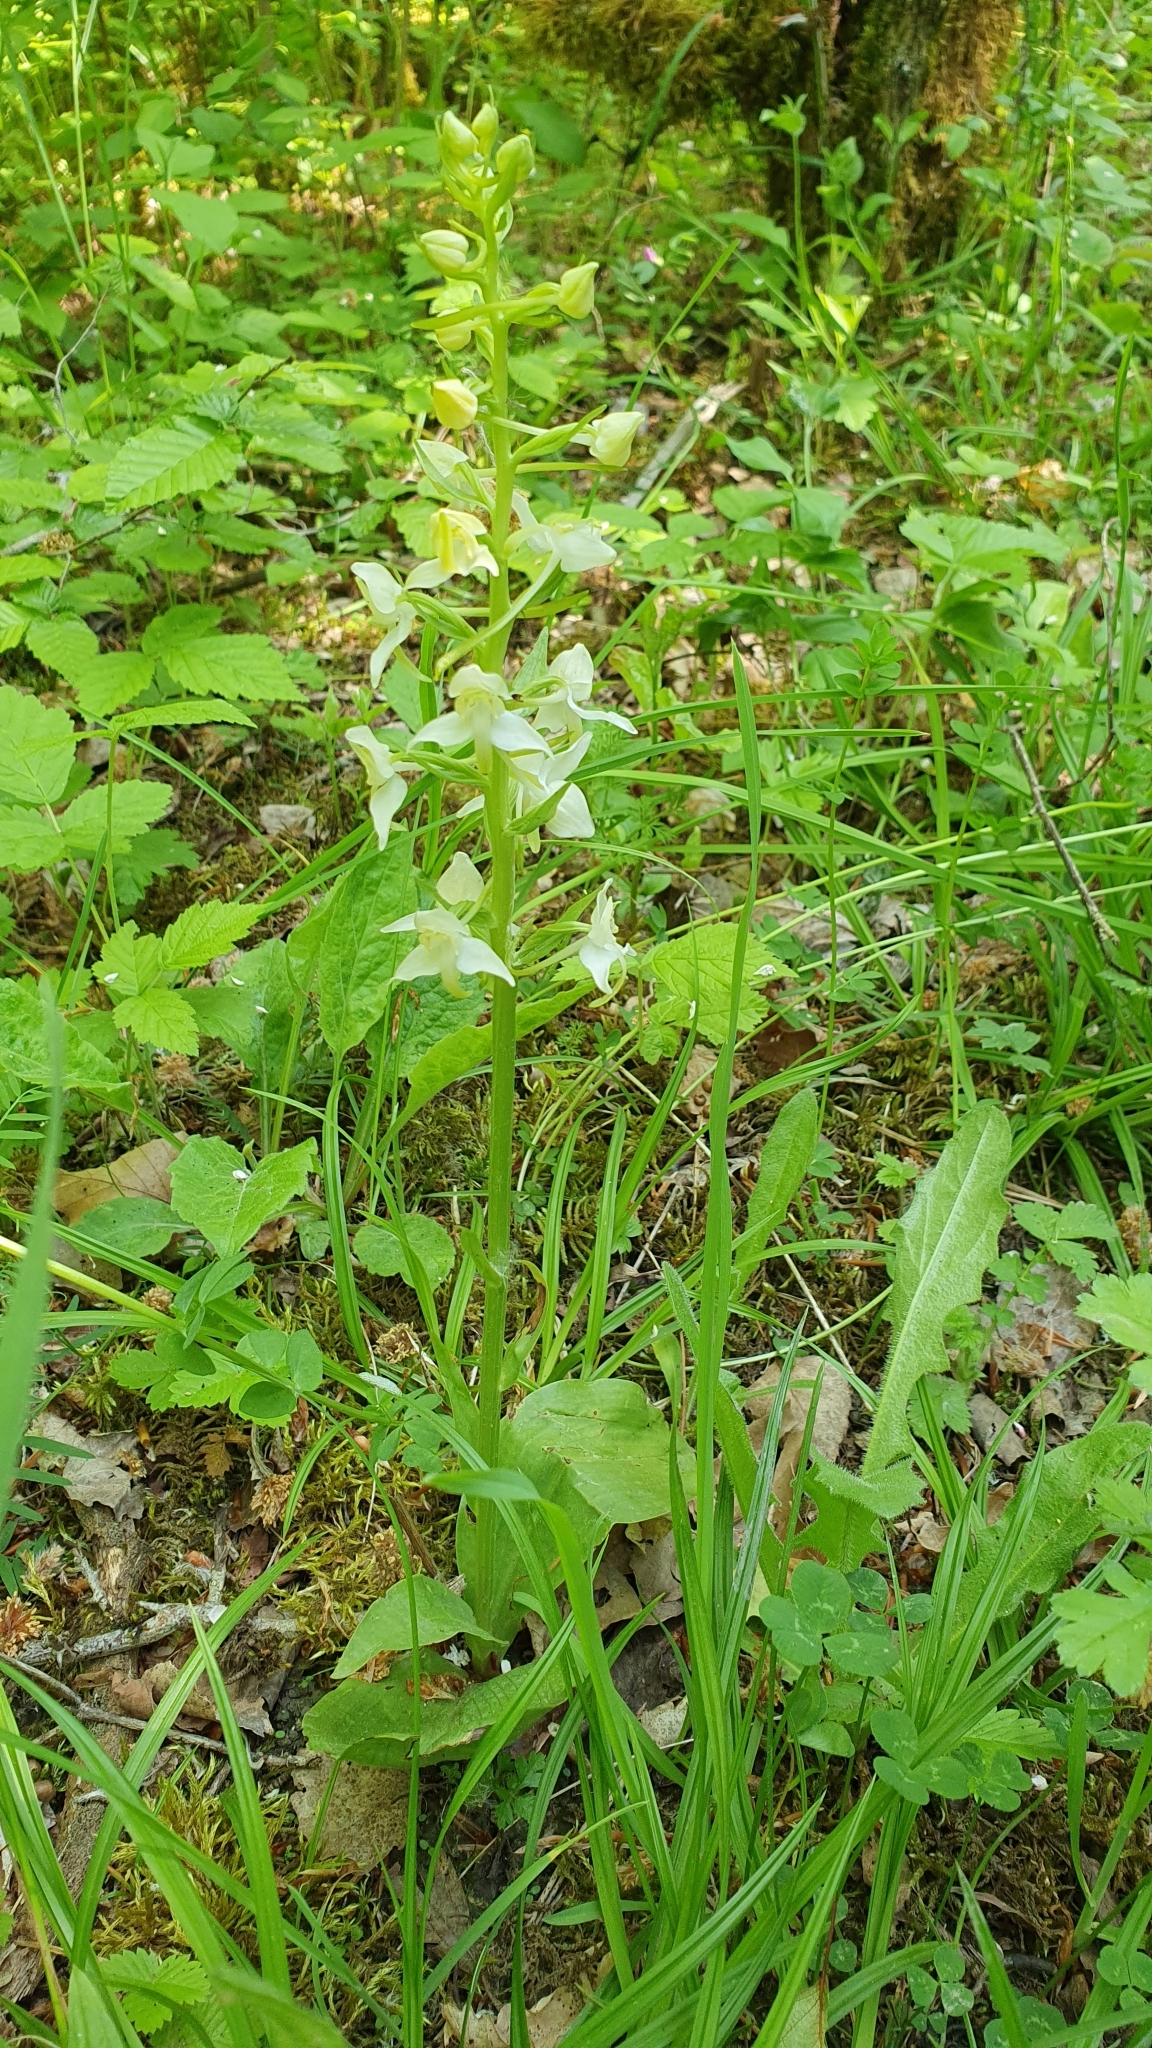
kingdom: Plantae
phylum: Tracheophyta
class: Liliopsida
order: Asparagales
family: Orchidaceae
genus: Platanthera
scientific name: Platanthera chlorantha
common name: Greater butterfly-orchid
